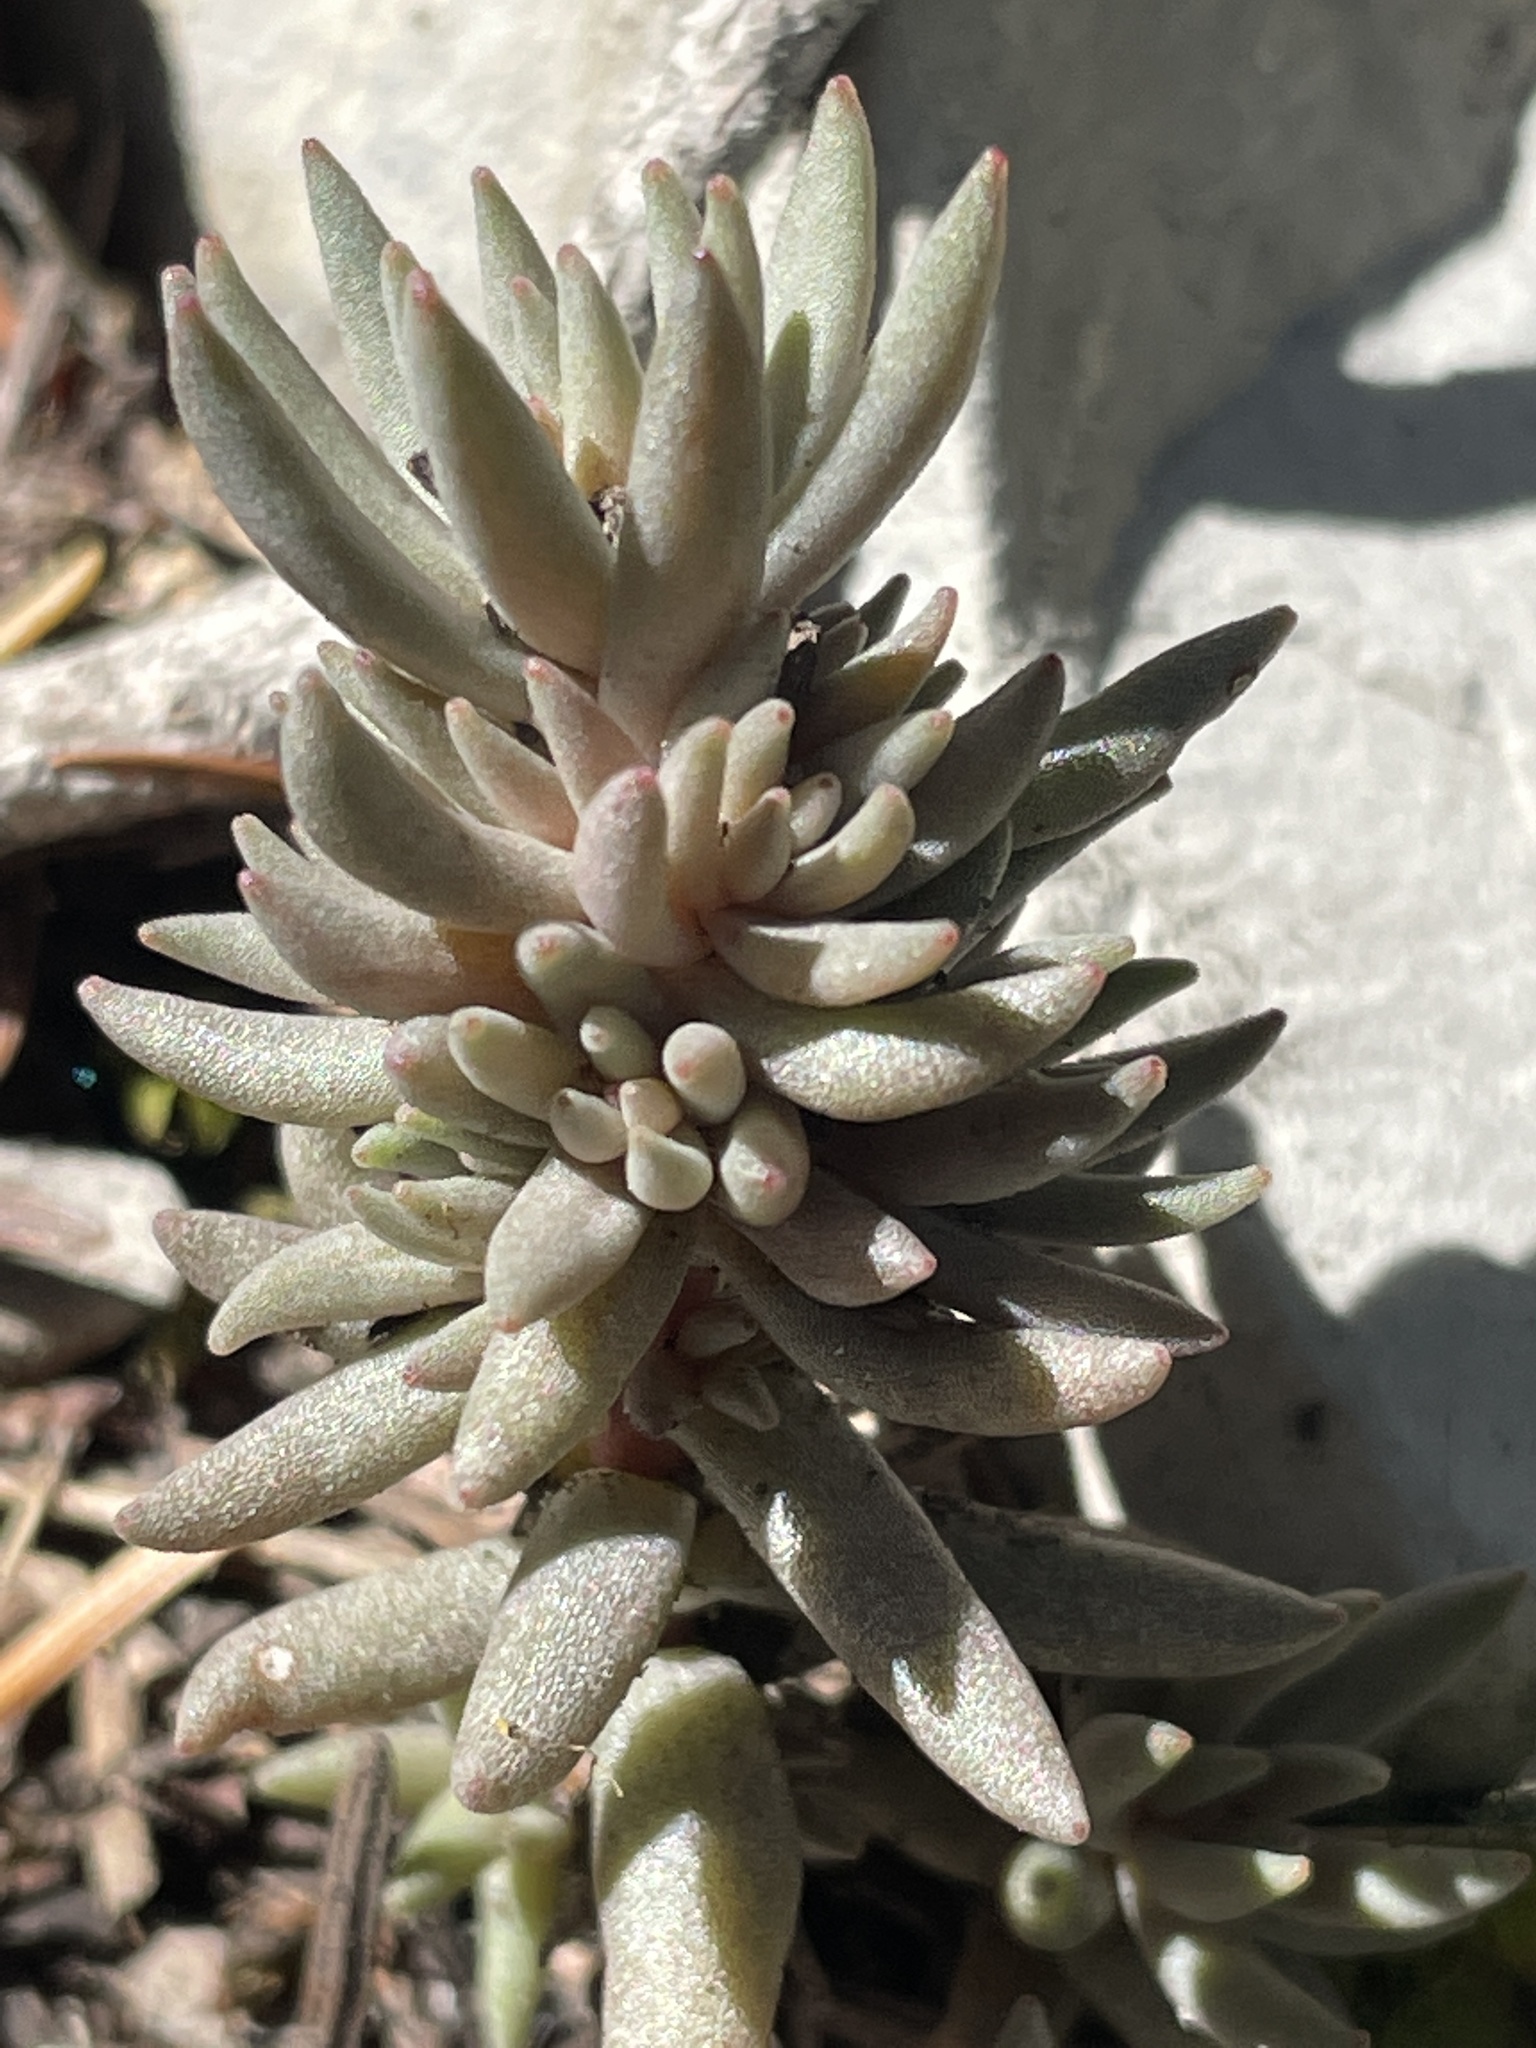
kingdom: Plantae
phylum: Tracheophyta
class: Magnoliopsida
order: Saxifragales
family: Crassulaceae
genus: Sedum
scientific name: Sedum lanceolatum
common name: Common stonecrop
